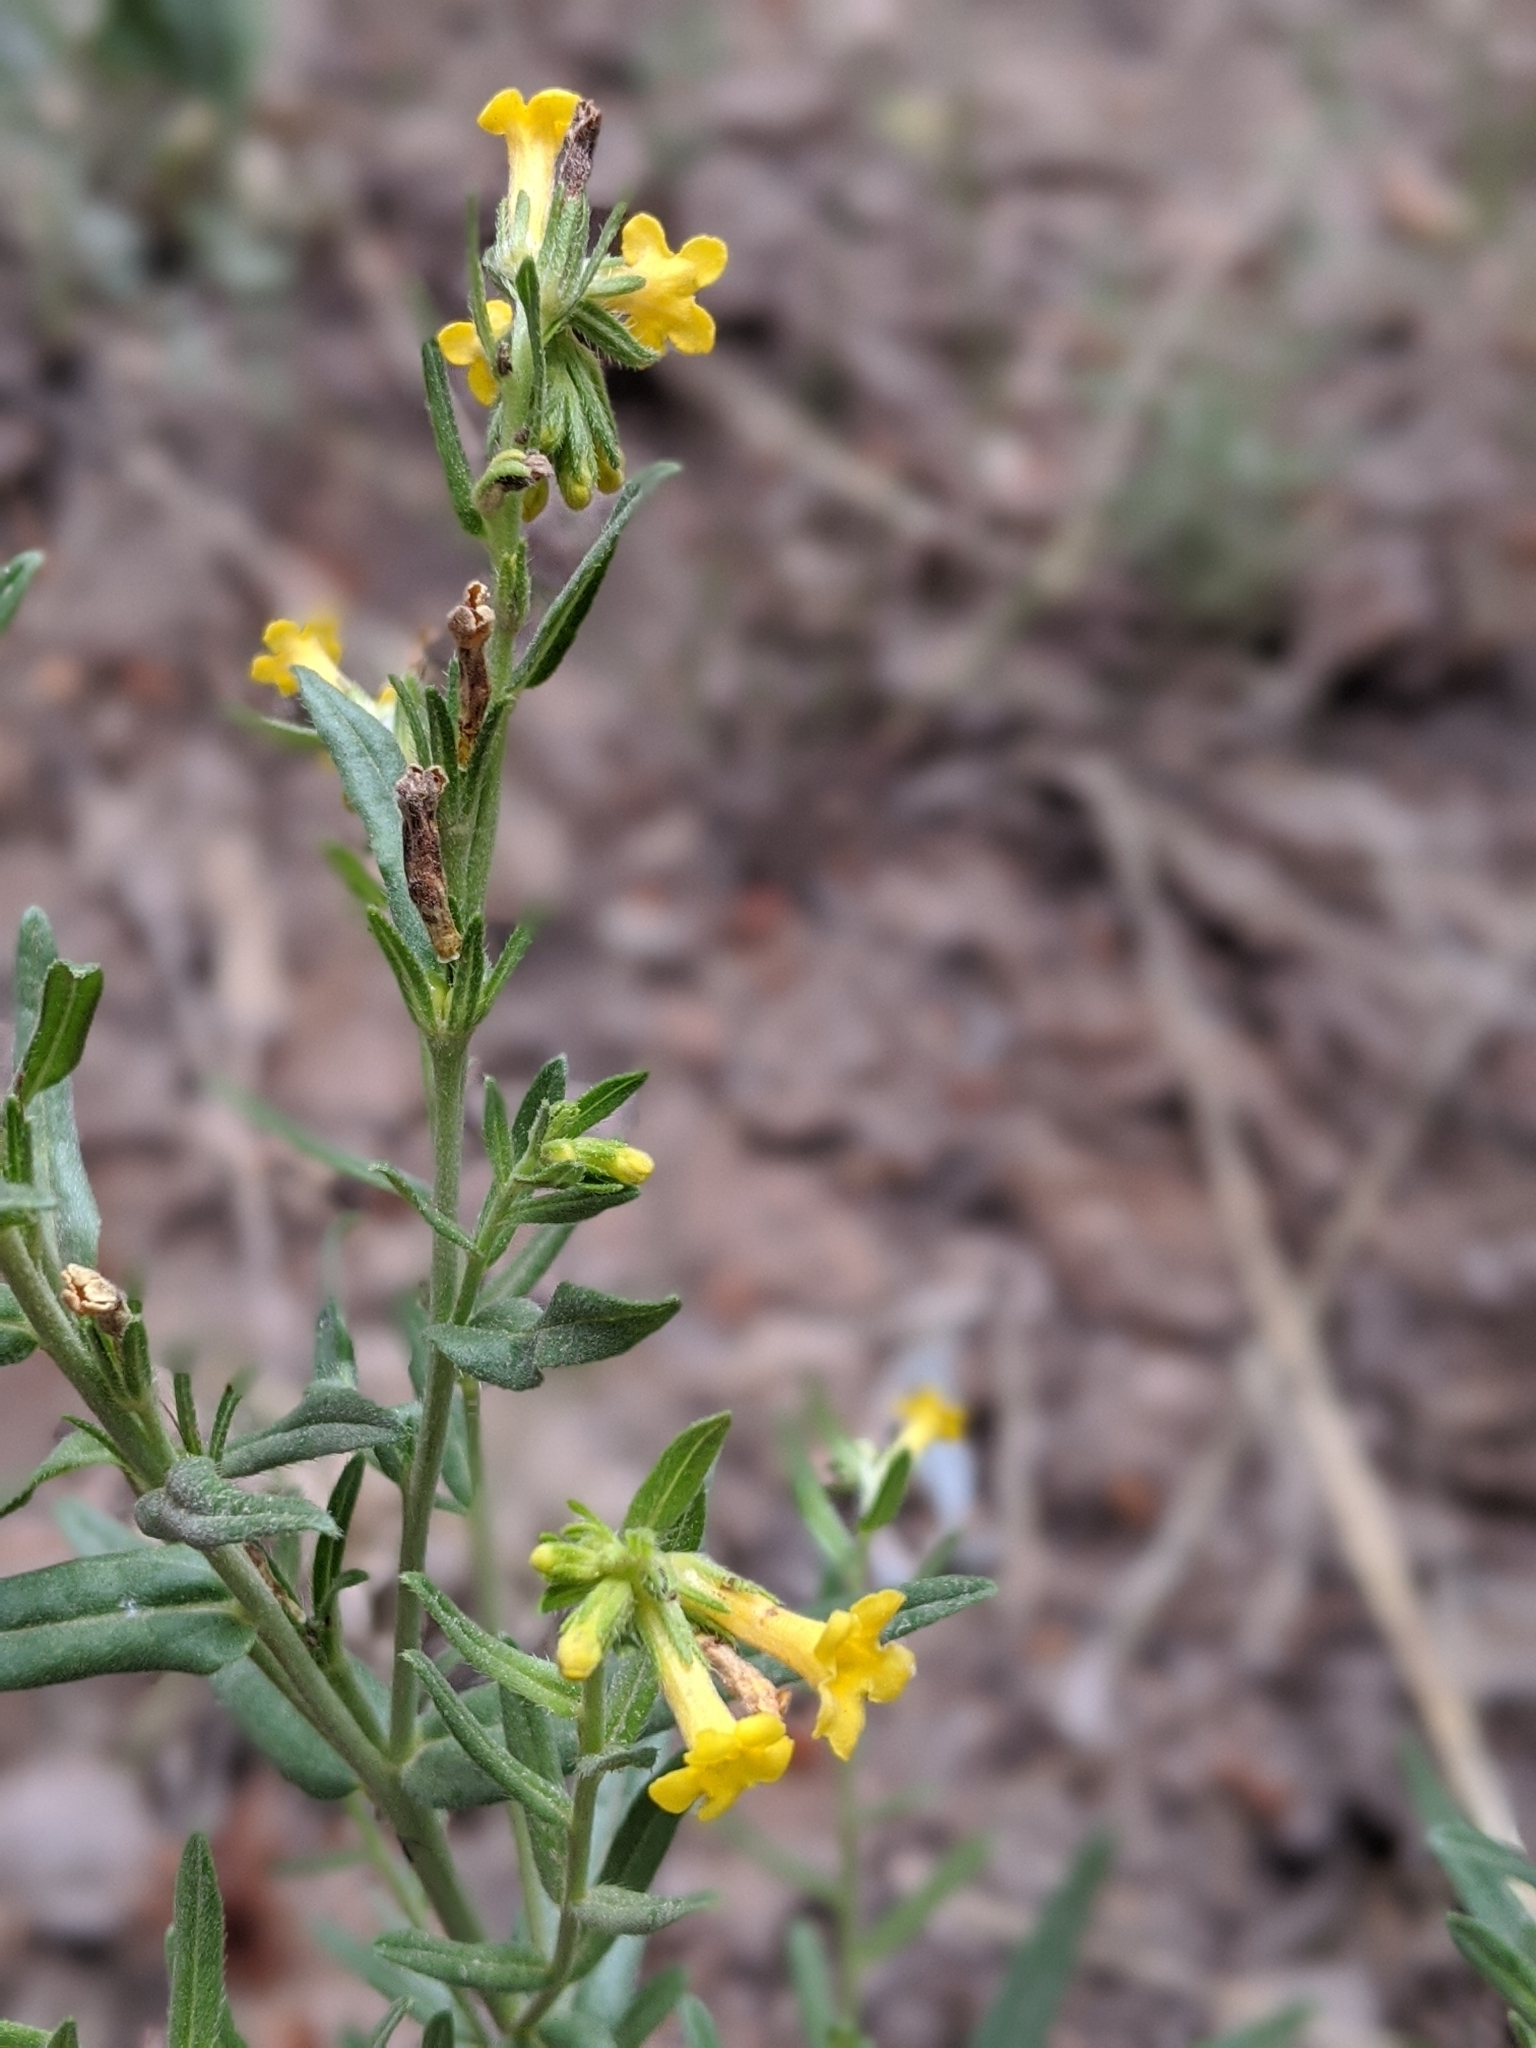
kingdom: Plantae
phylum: Tracheophyta
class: Magnoliopsida
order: Boraginales
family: Boraginaceae
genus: Lithospermum
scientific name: Lithospermum multiflorum
